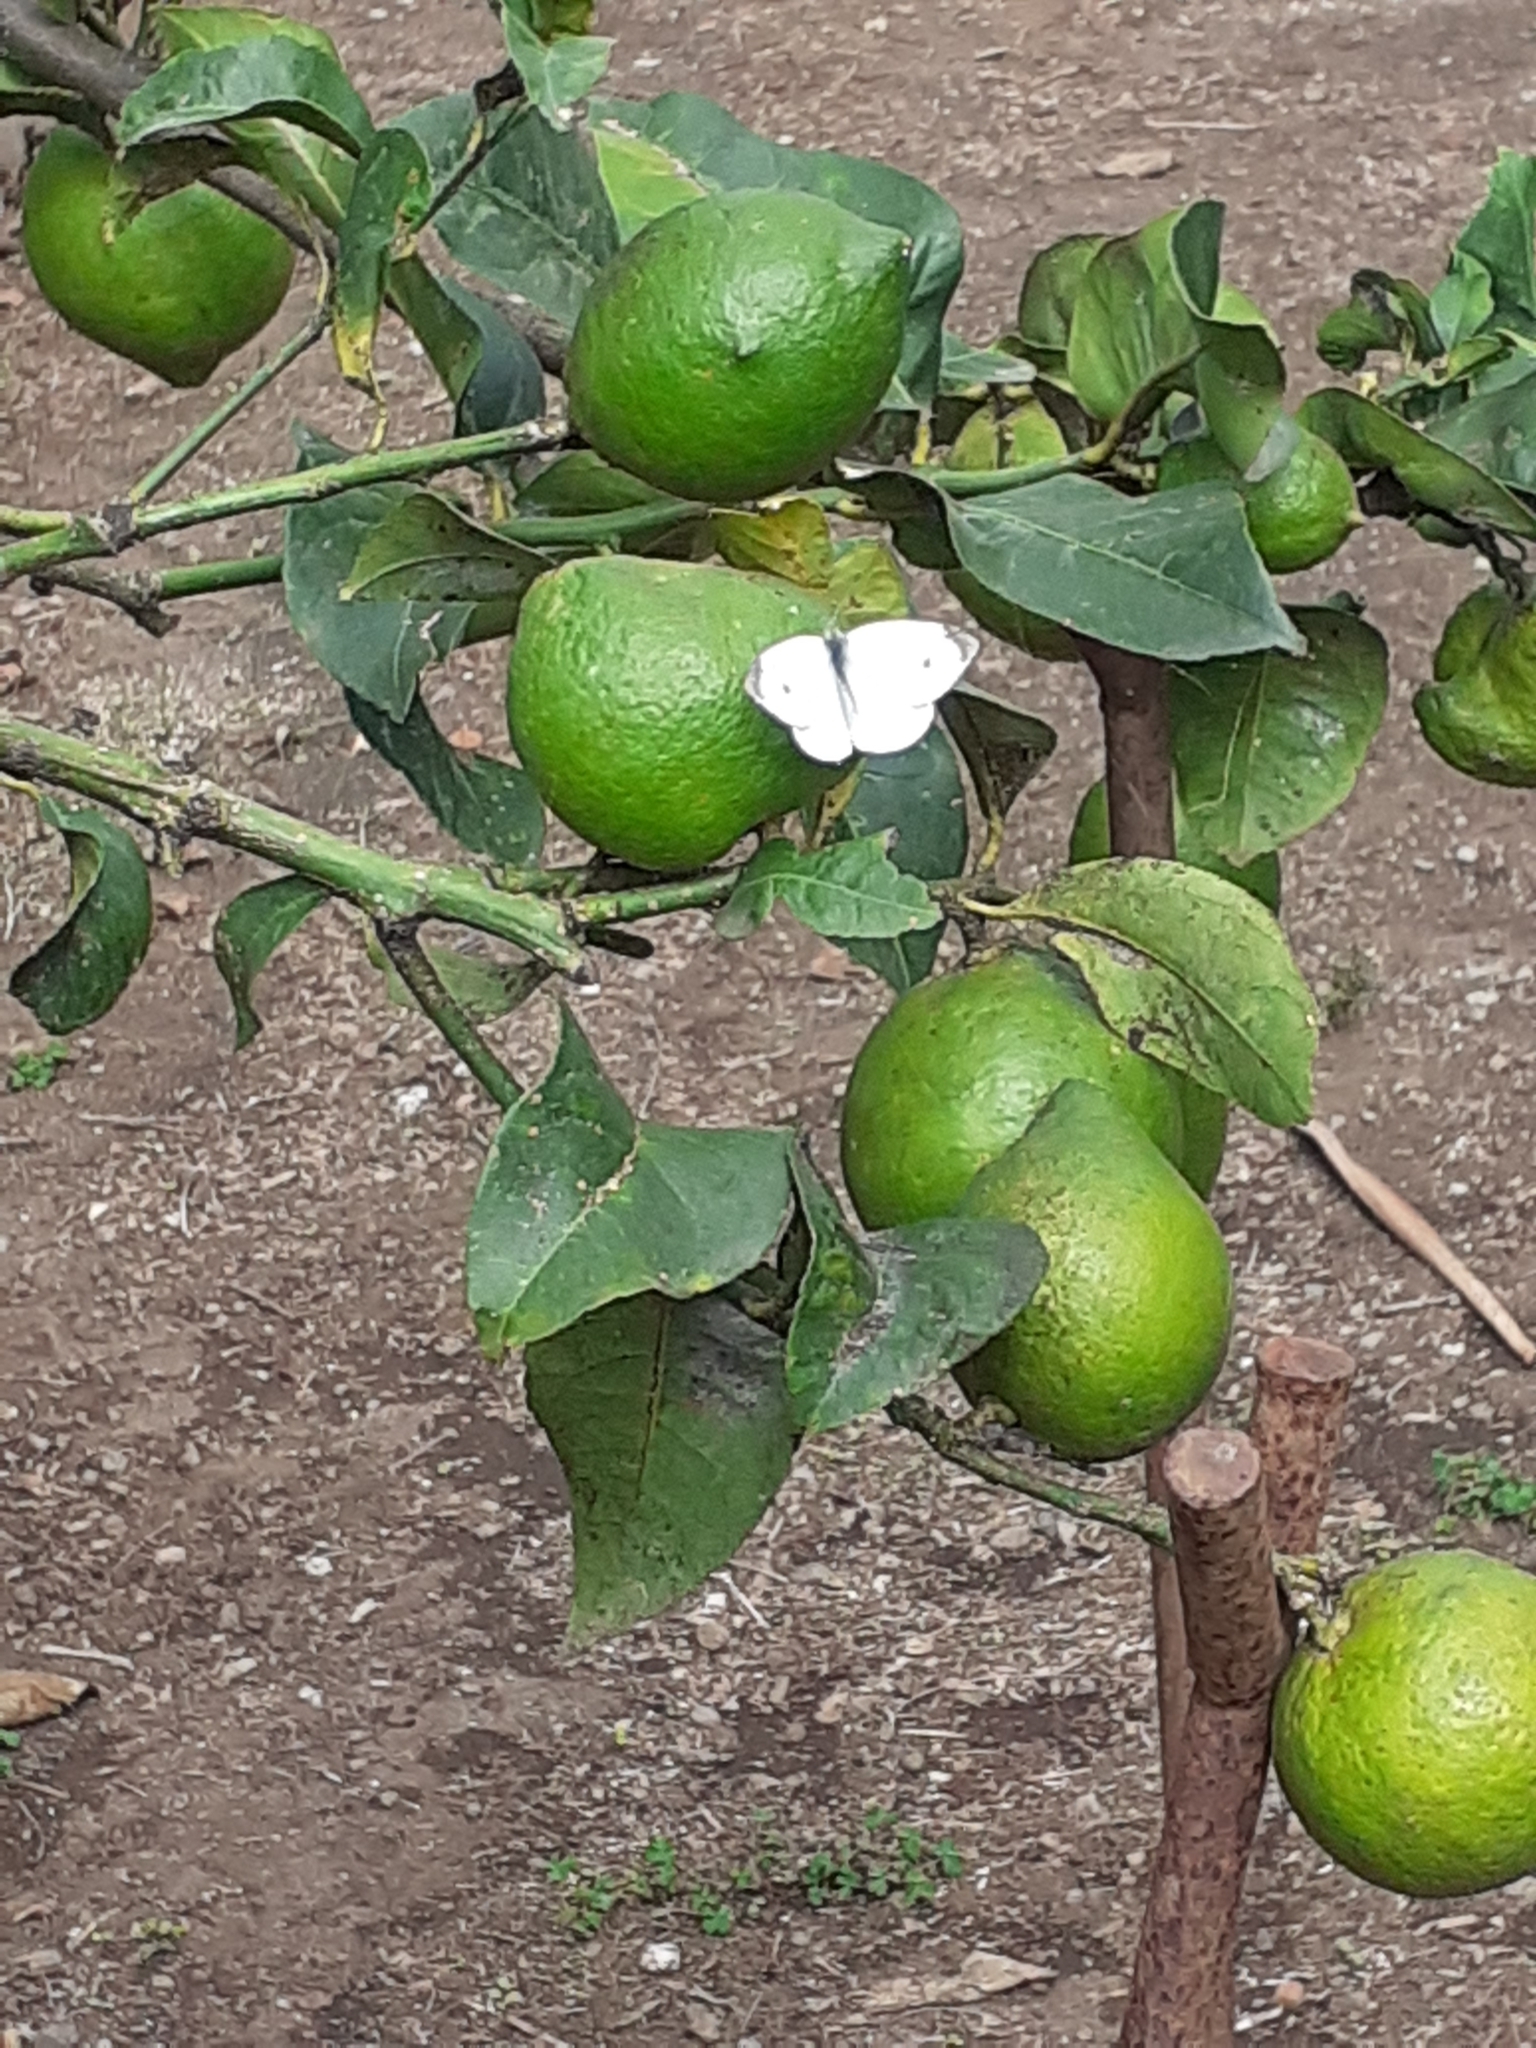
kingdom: Animalia
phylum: Arthropoda
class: Insecta
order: Lepidoptera
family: Pieridae
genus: Pieris
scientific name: Pieris rapae
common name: Small white
